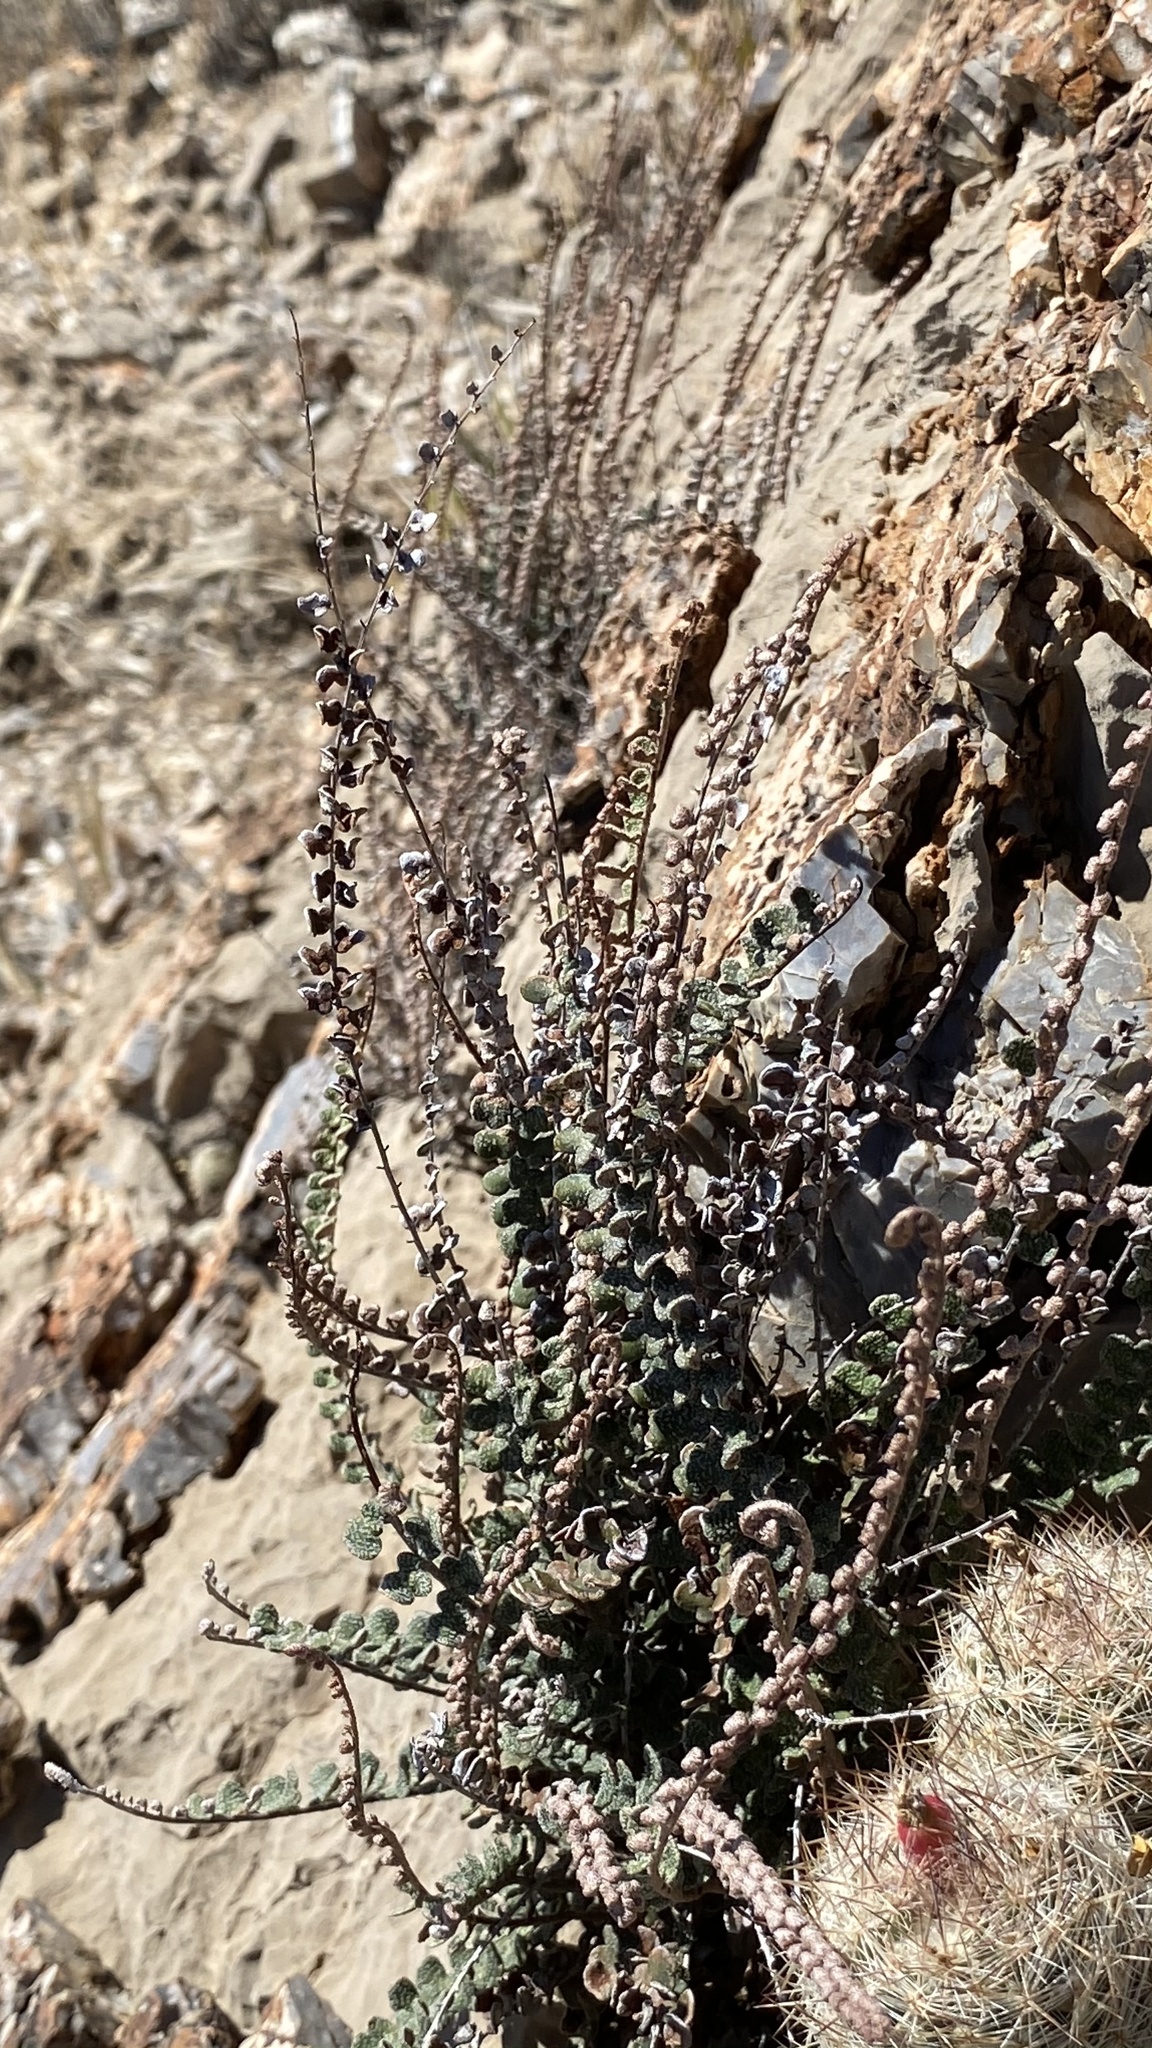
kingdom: Plantae
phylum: Tracheophyta
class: Polypodiopsida
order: Polypodiales
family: Pteridaceae
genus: Astrolepis
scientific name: Astrolepis cochisensis
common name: Scaly cloak fern
